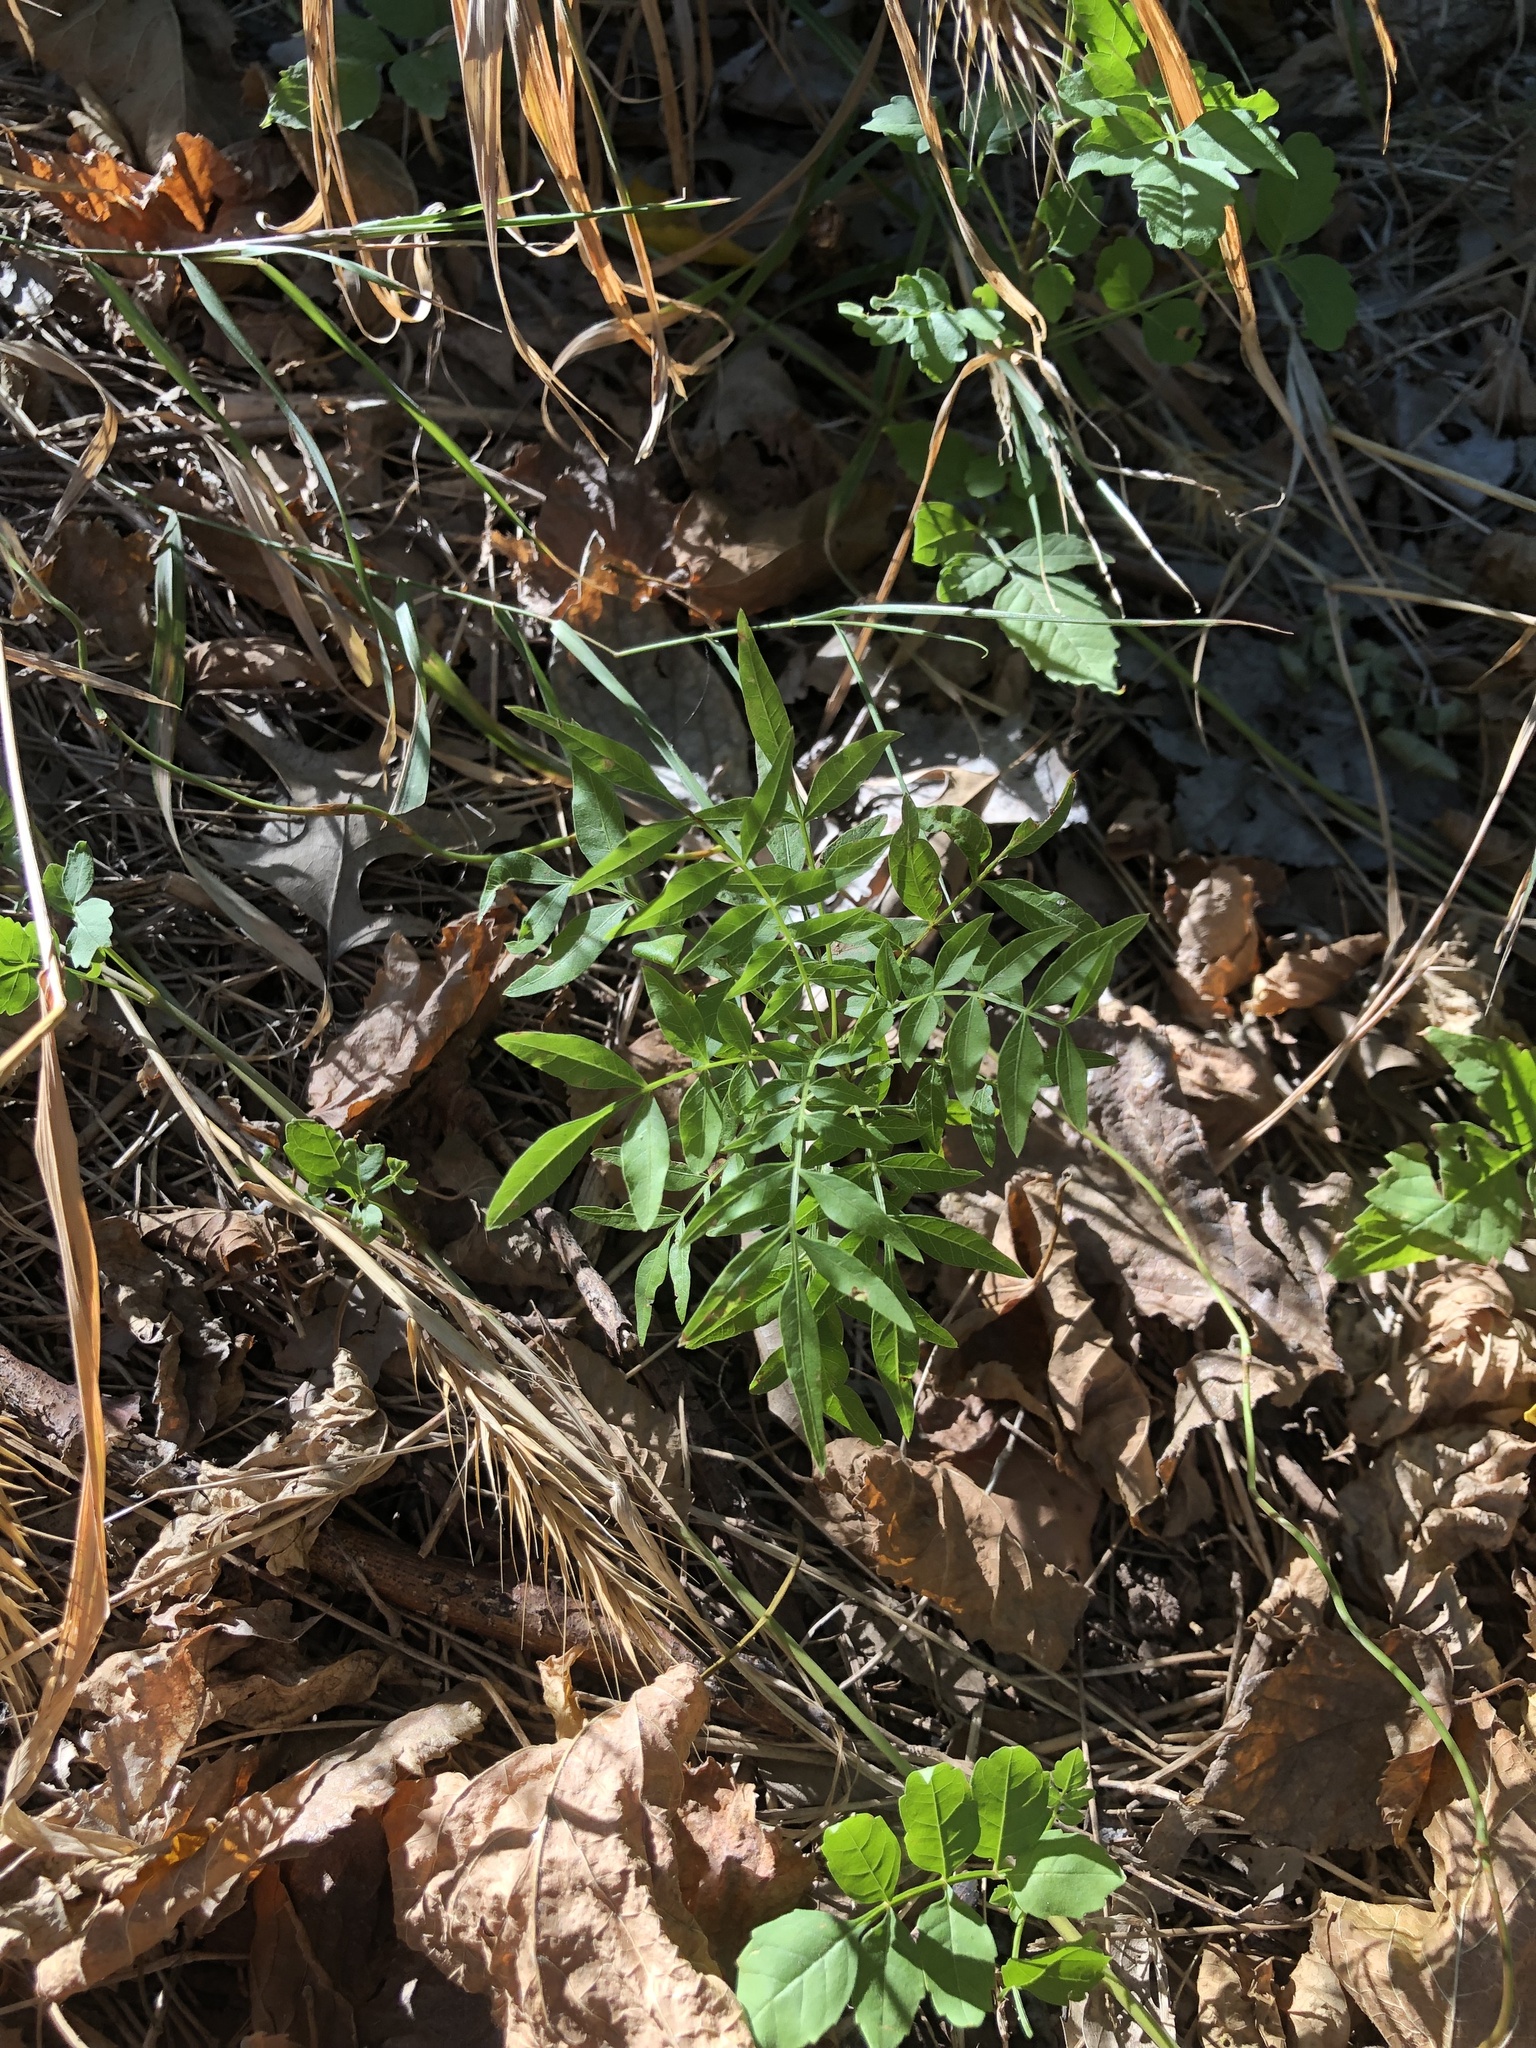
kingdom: Plantae
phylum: Tracheophyta
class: Magnoliopsida
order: Sapindales
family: Sapindaceae
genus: Sapindus
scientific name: Sapindus drummondii
